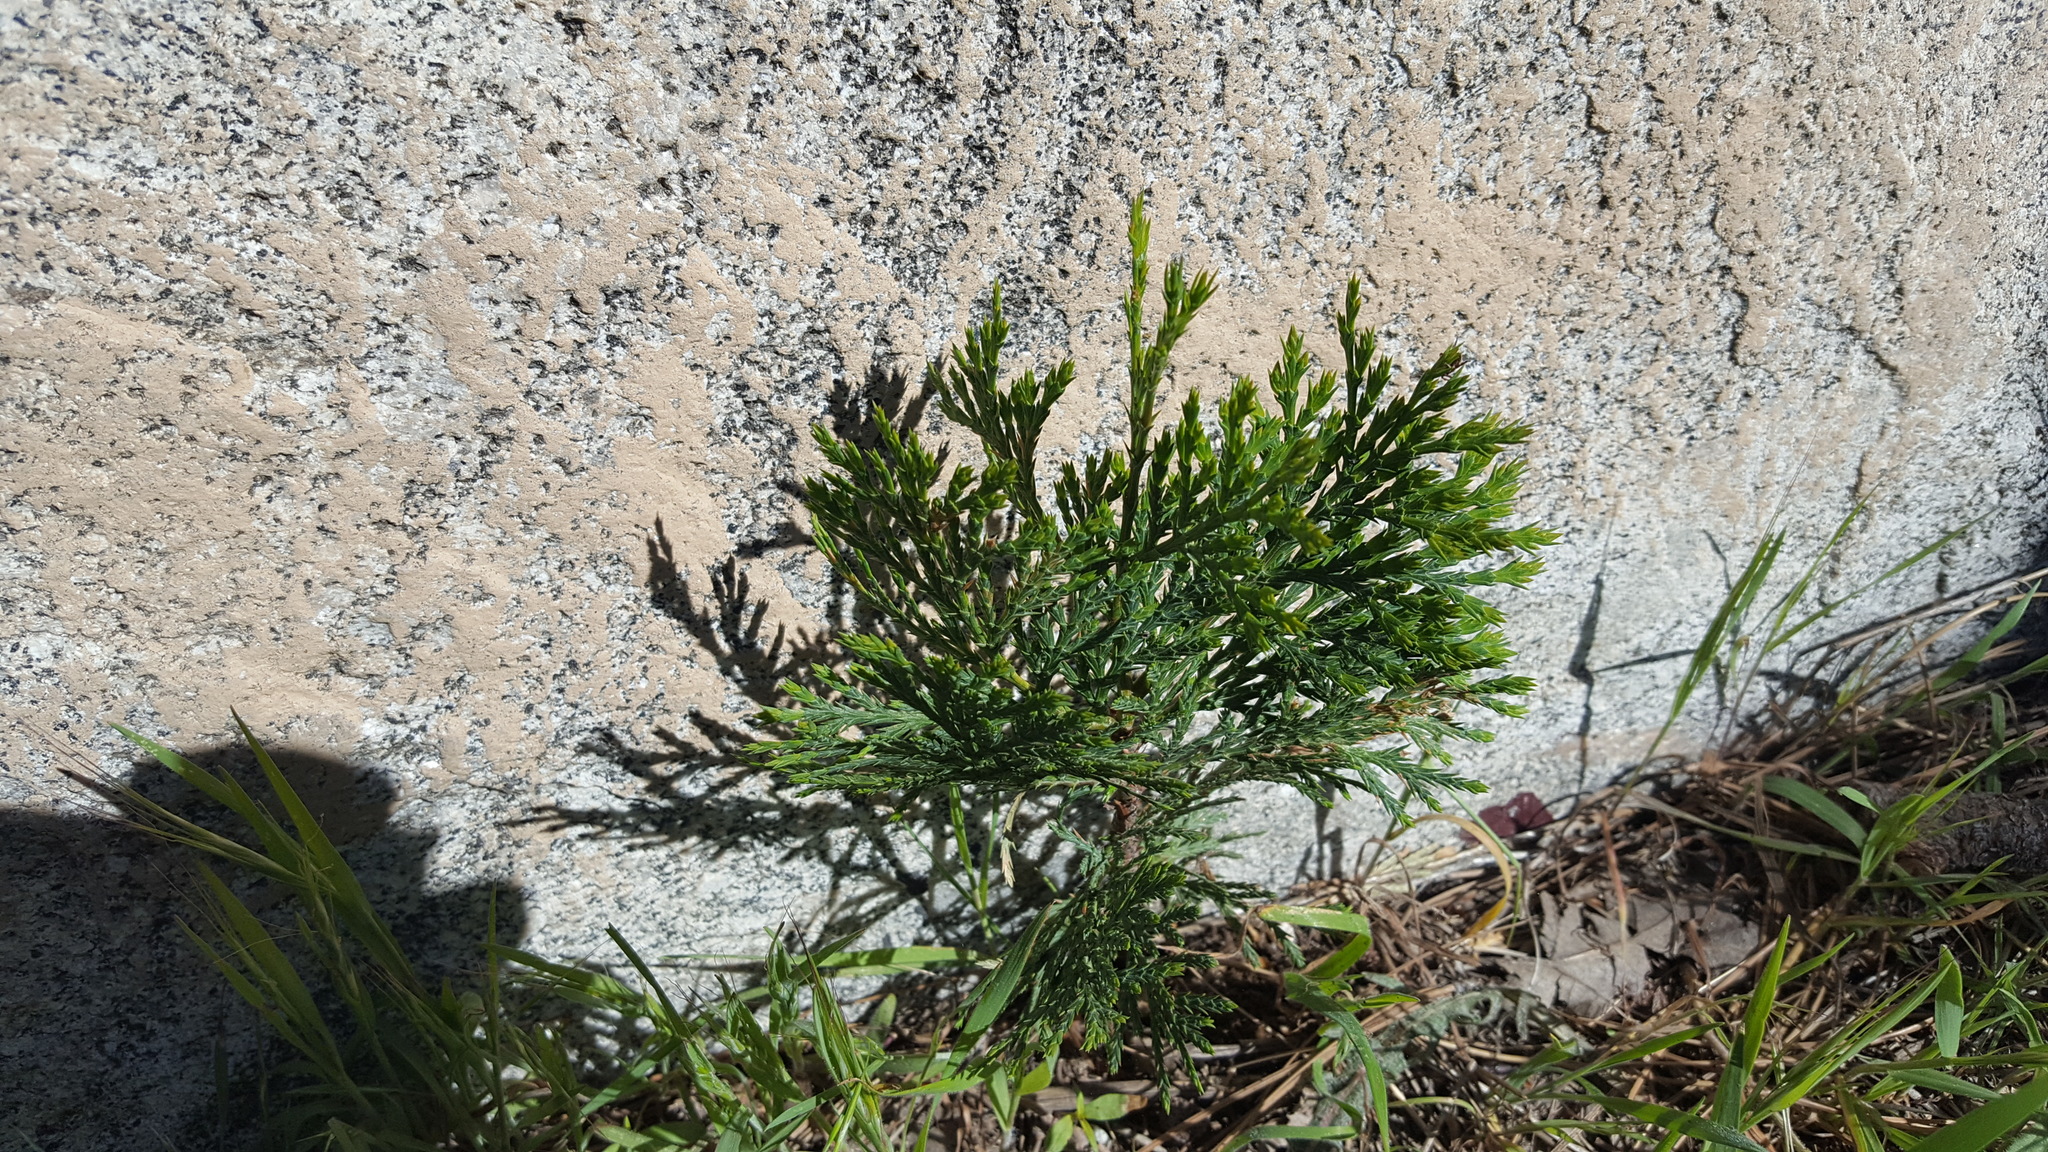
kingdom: Plantae
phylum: Tracheophyta
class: Pinopsida
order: Pinales
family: Cupressaceae
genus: Calocedrus
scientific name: Calocedrus decurrens
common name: Californian incense-cedar
